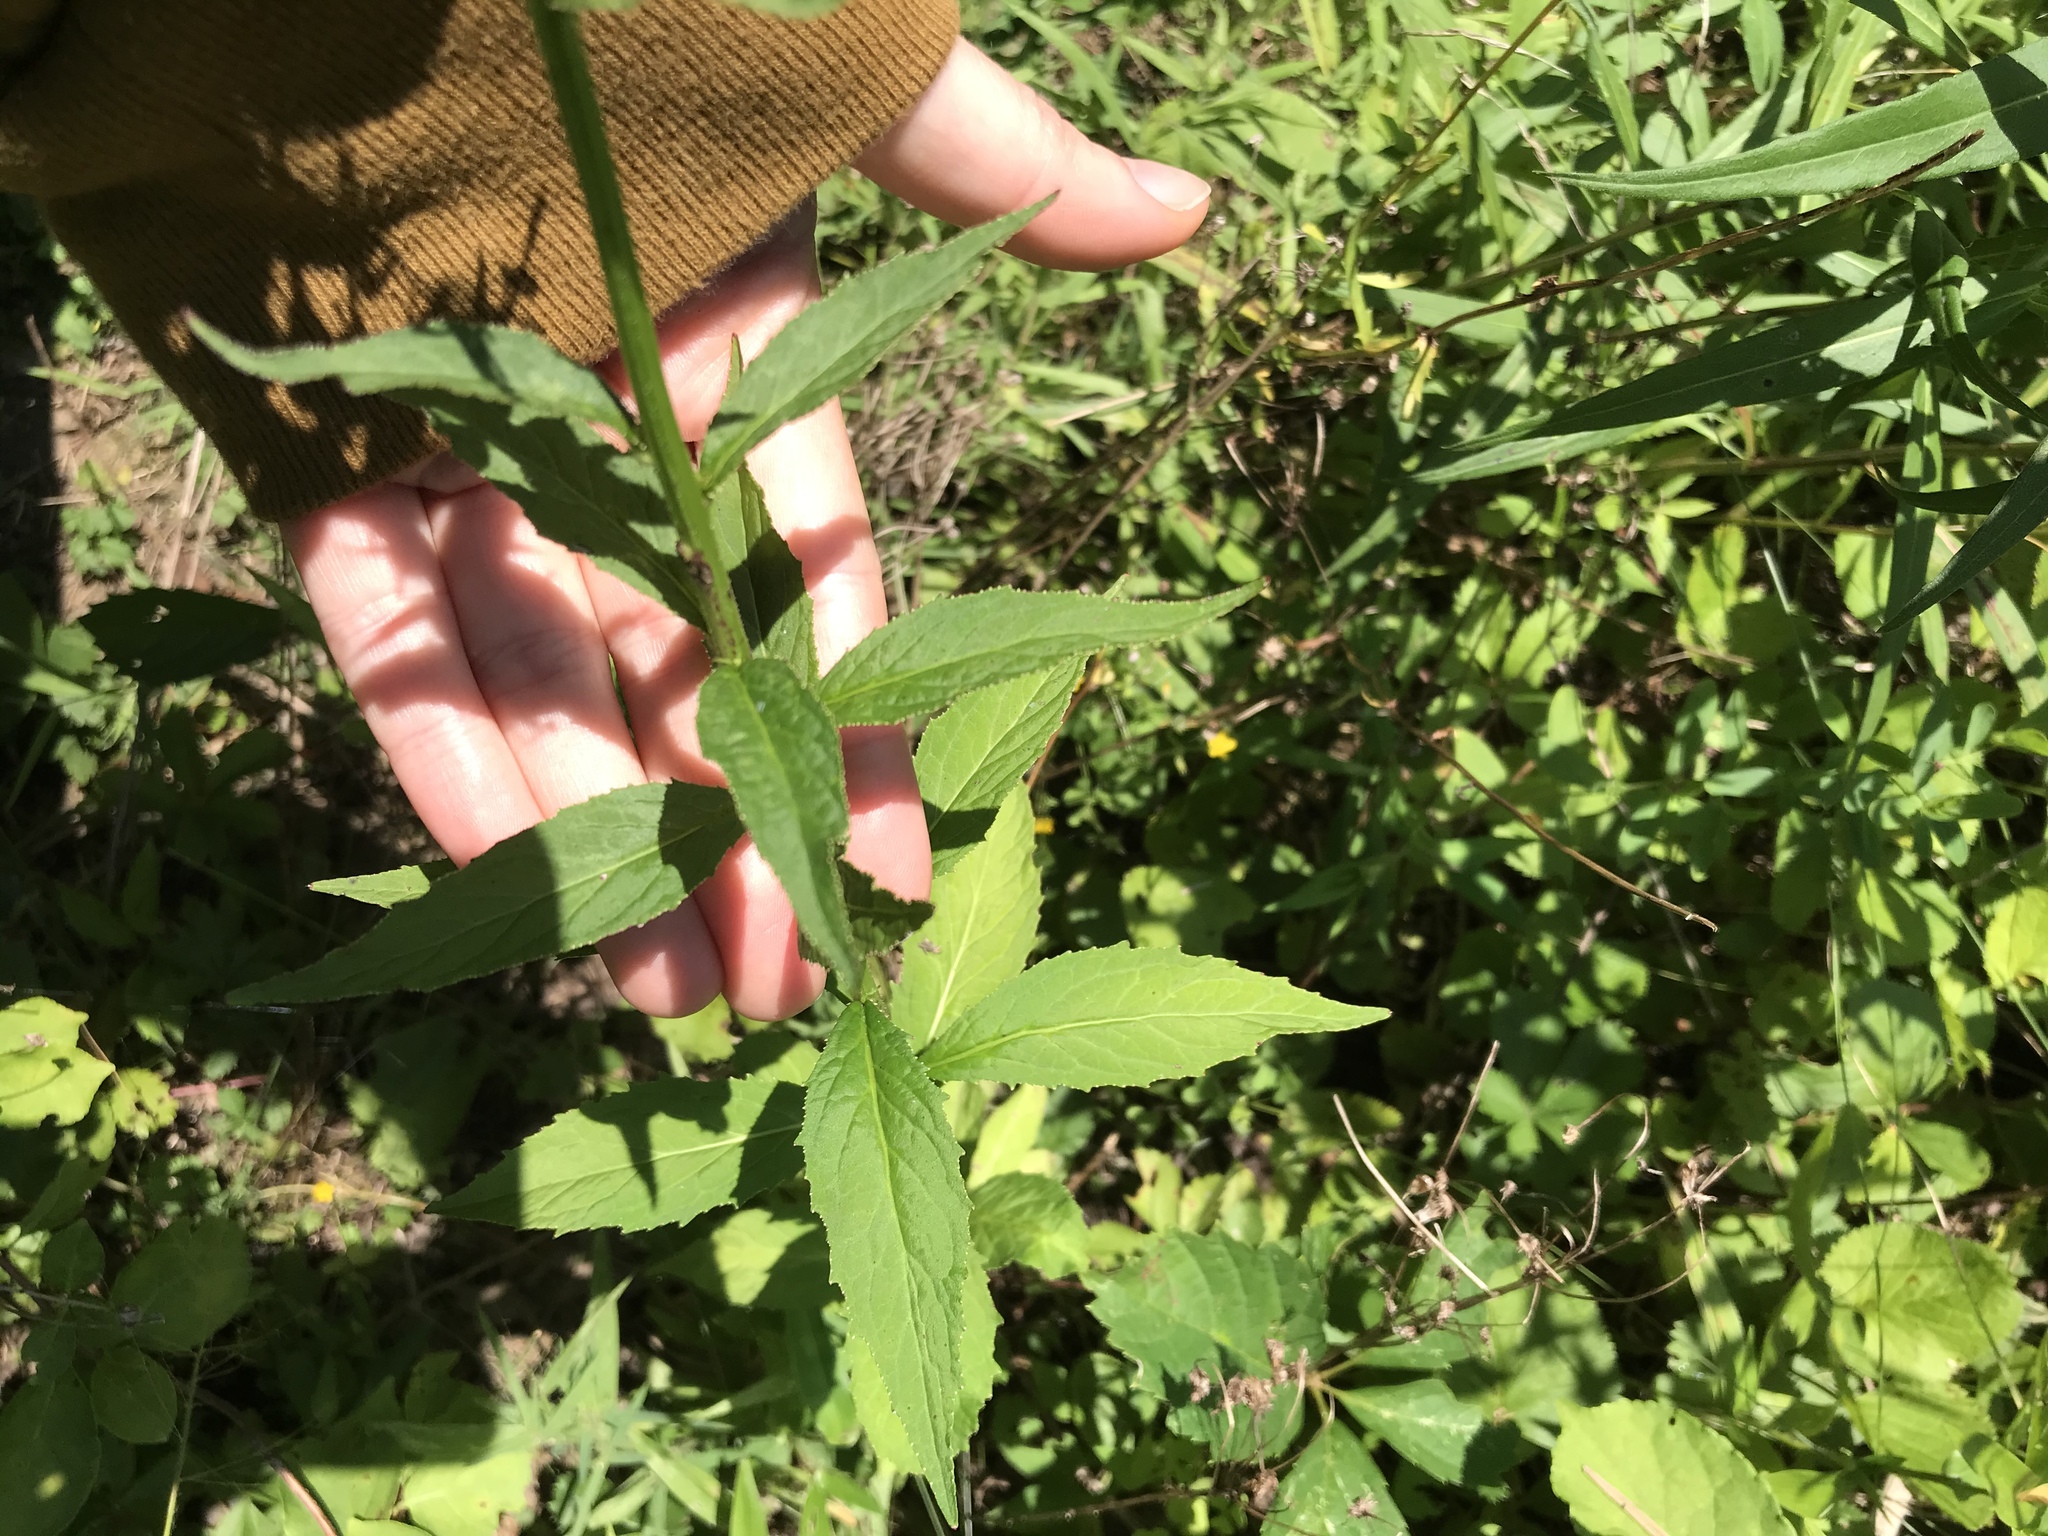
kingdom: Plantae
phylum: Tracheophyta
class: Magnoliopsida
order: Asterales
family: Campanulaceae
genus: Lobelia
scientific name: Lobelia cardinalis
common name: Cardinal flower
